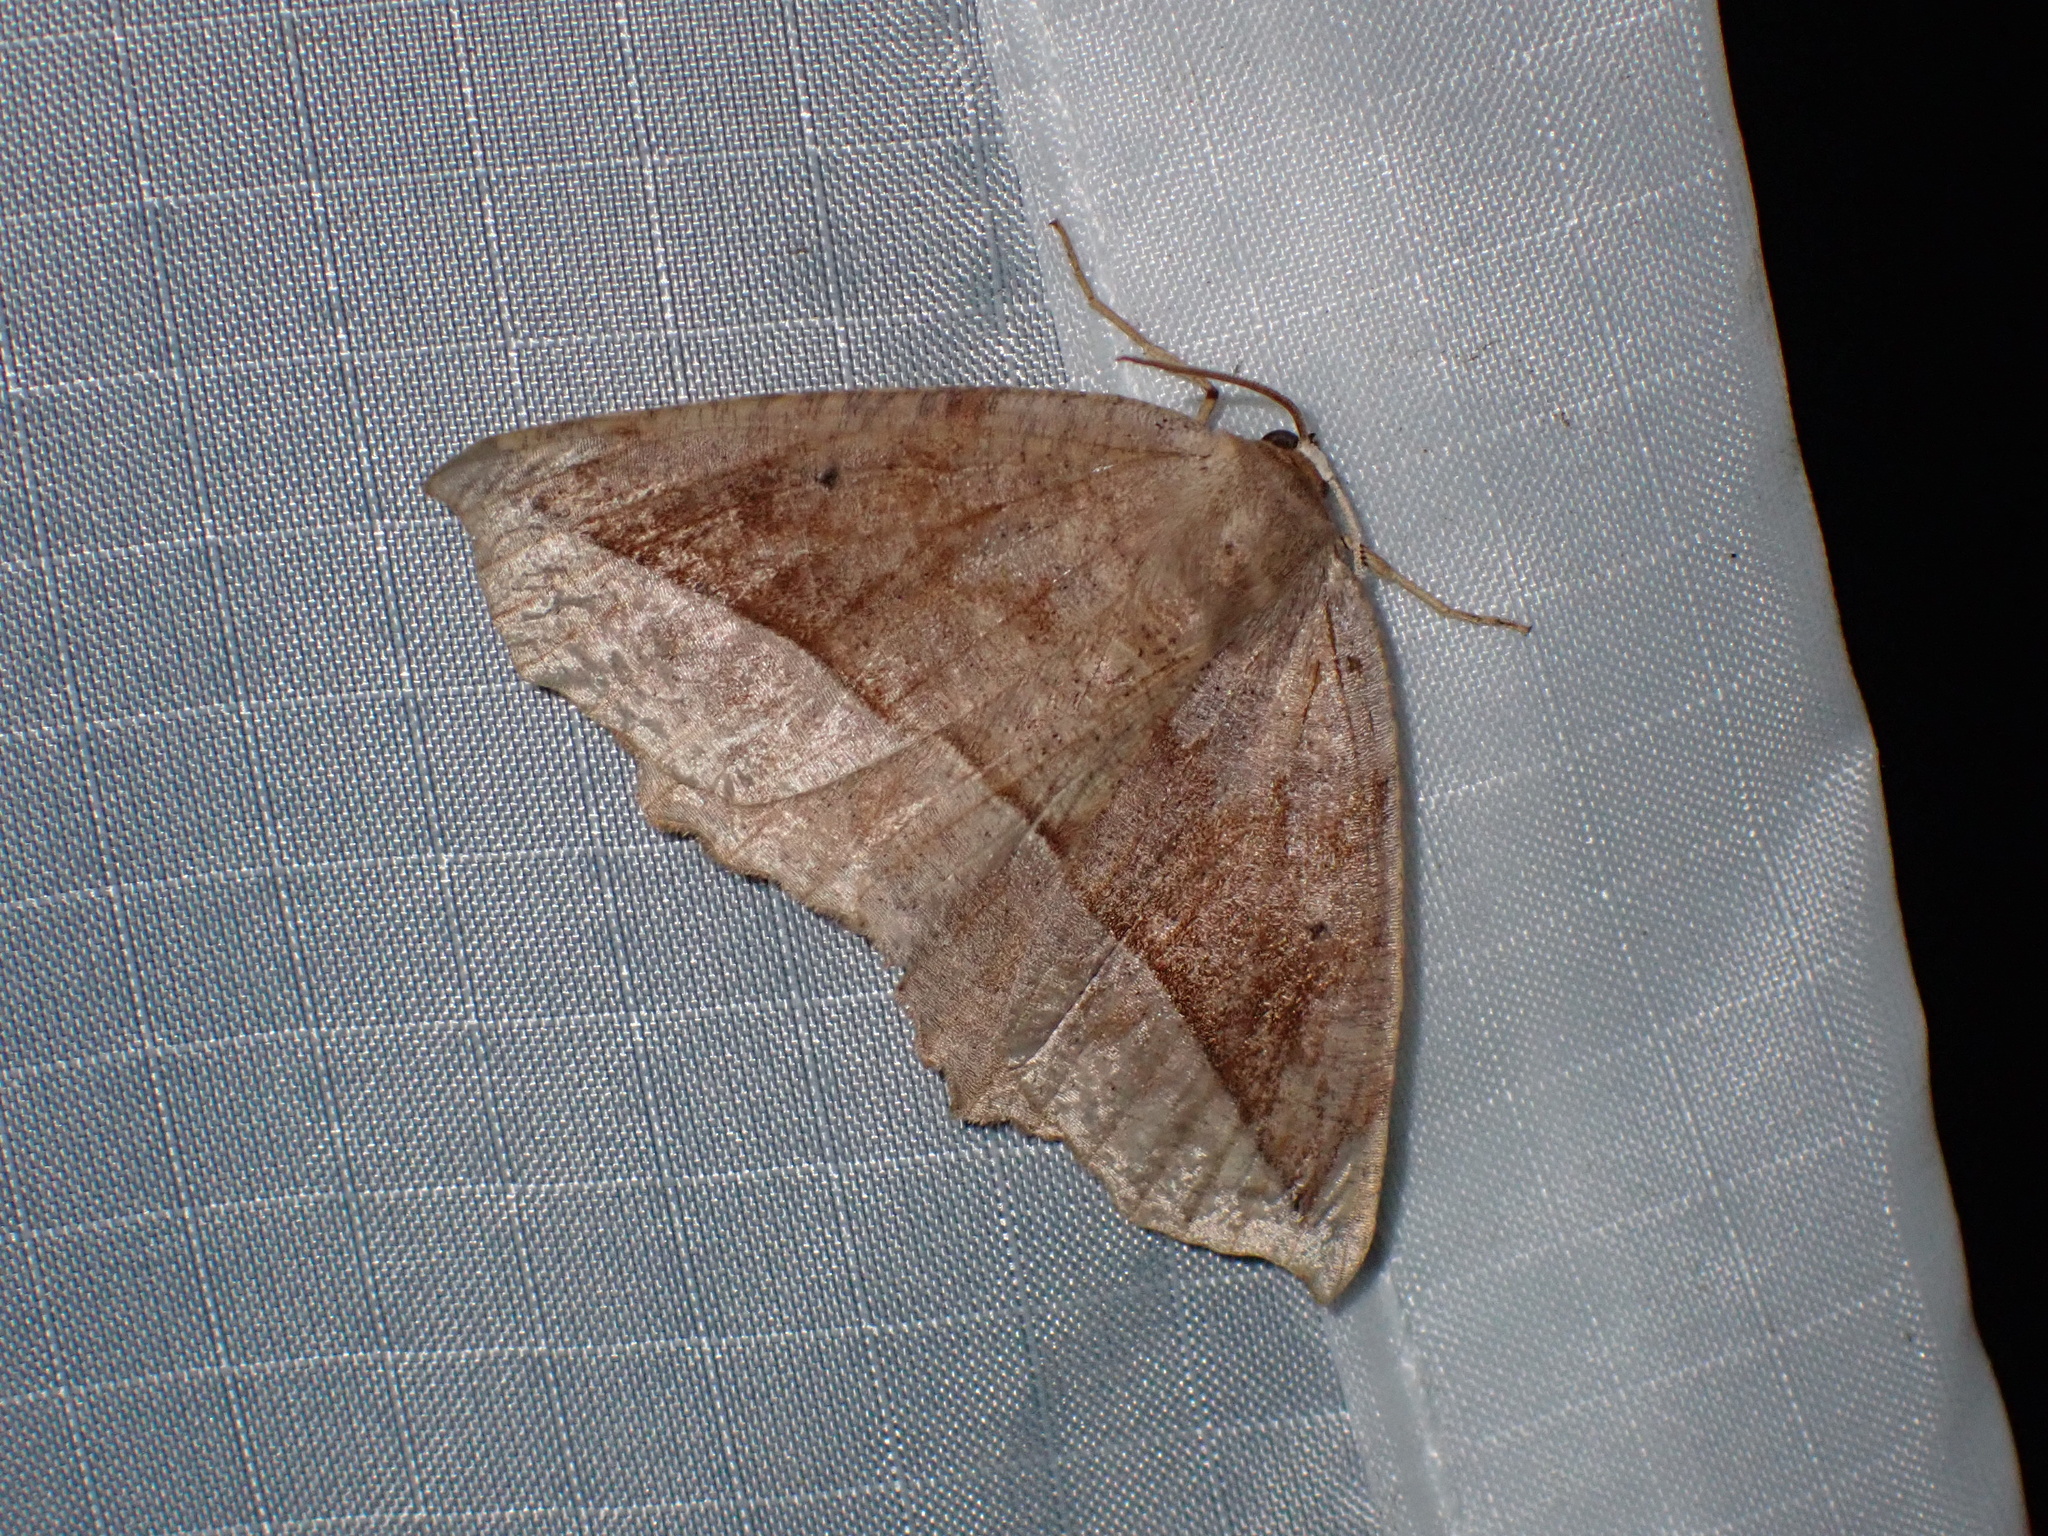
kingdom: Animalia
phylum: Arthropoda
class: Insecta
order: Lepidoptera
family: Geometridae
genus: Eutrapela
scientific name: Eutrapela clemataria
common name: Curved-toothed geometer
